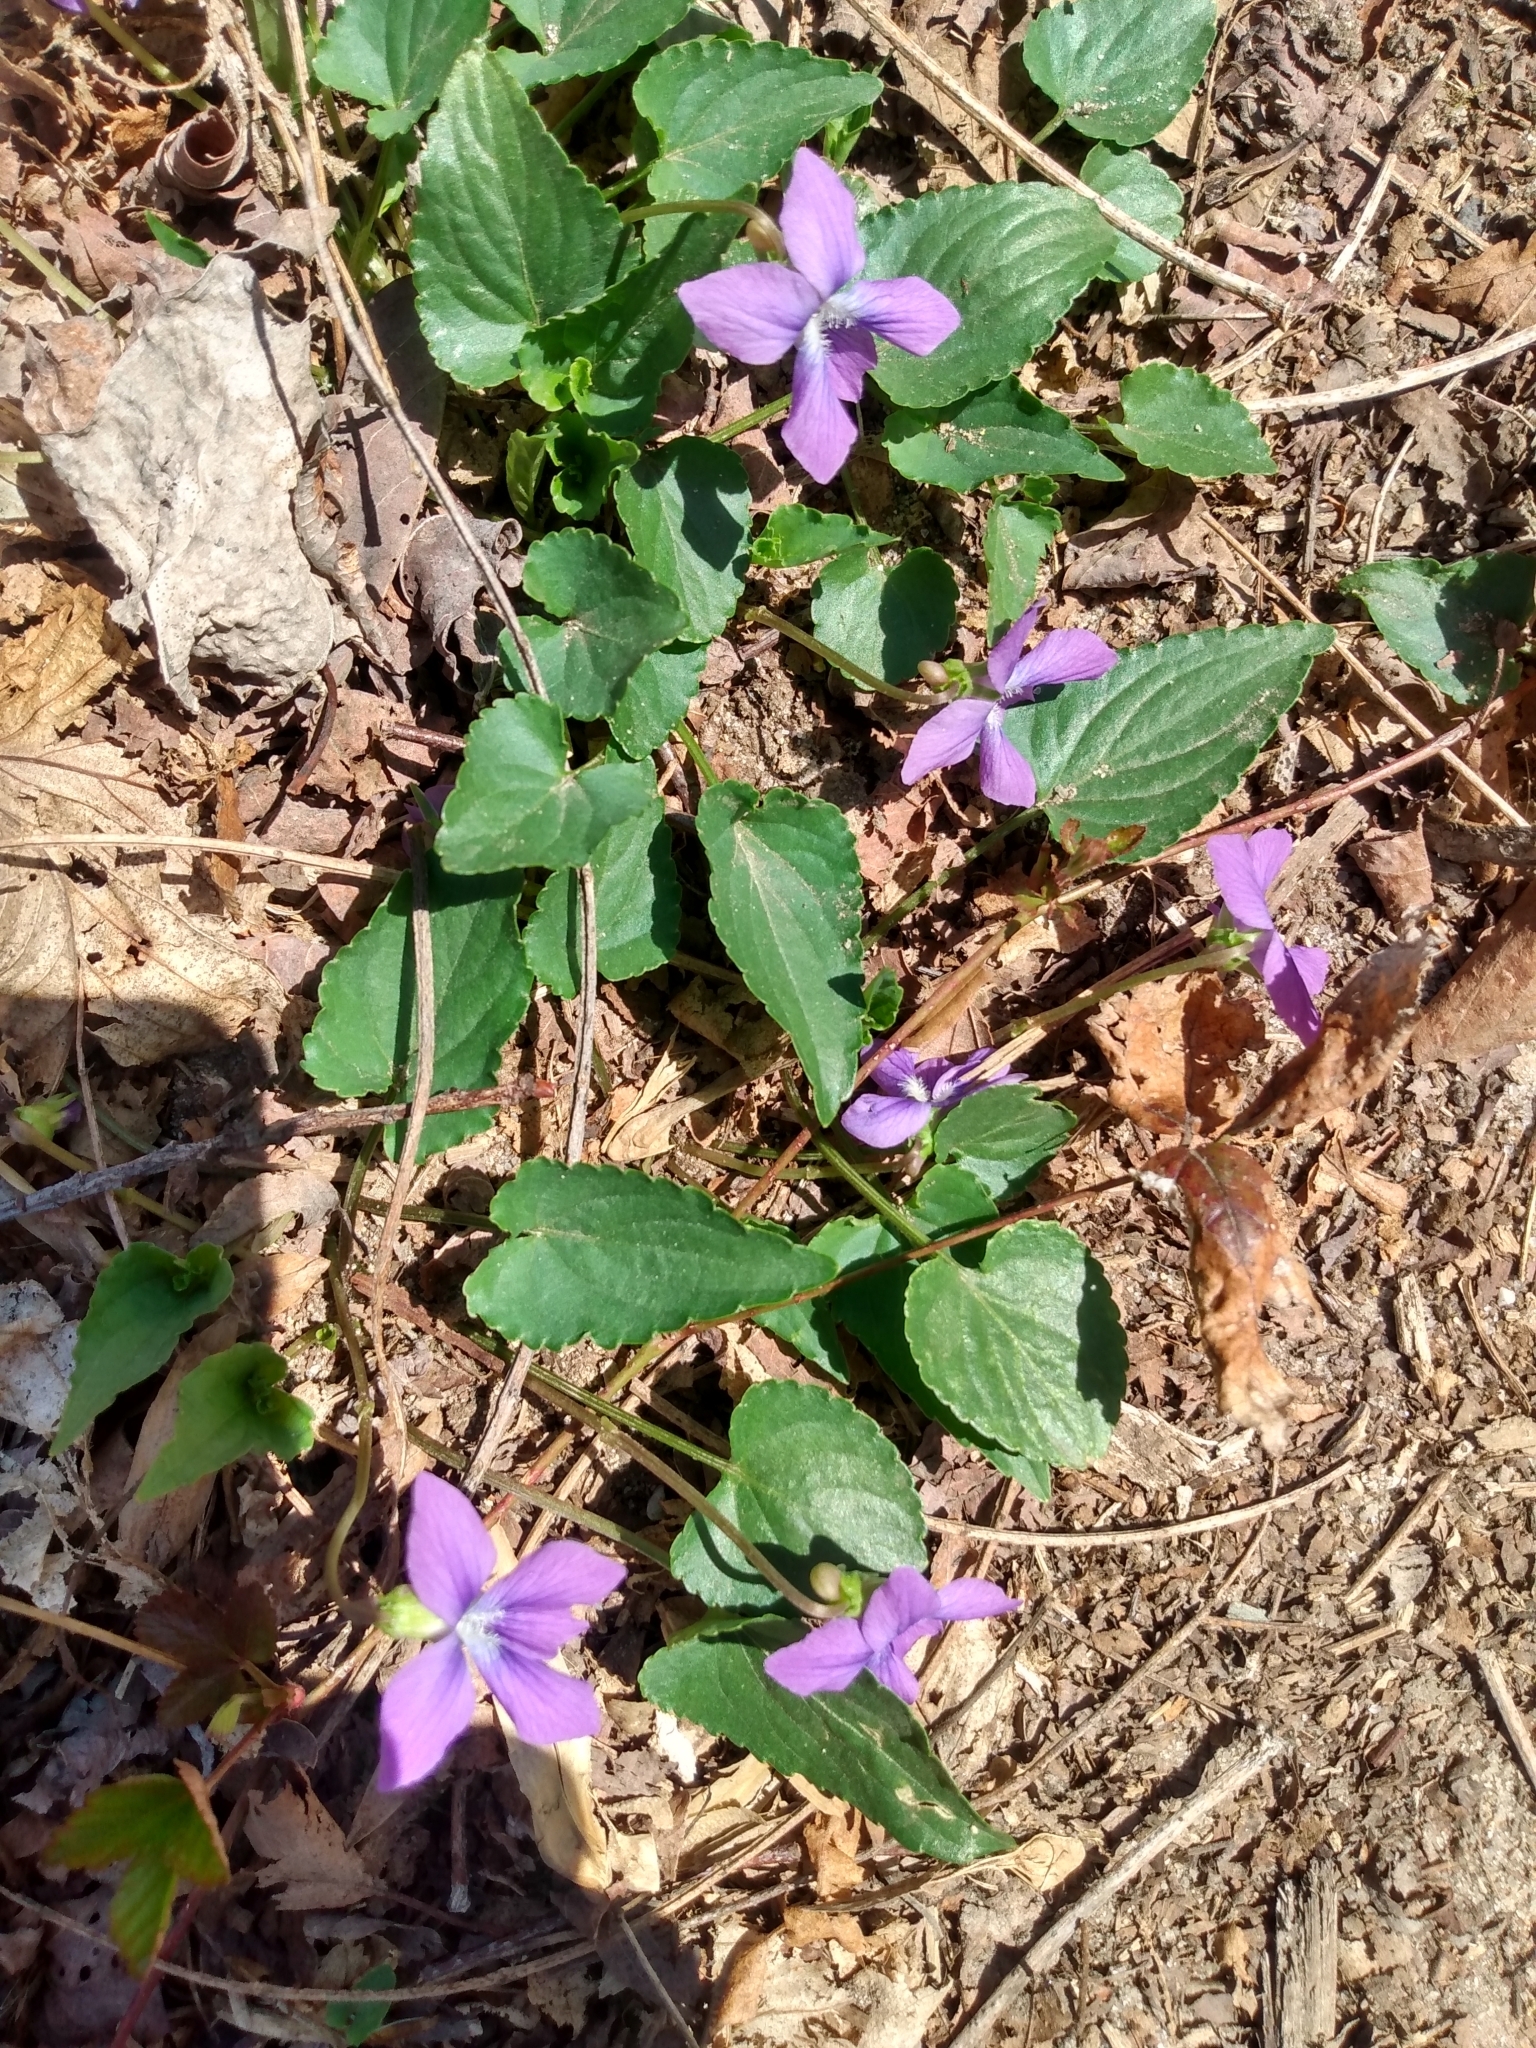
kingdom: Plantae
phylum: Tracheophyta
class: Magnoliopsida
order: Malpighiales
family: Violaceae
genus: Viola
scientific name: Viola sororia
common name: Dooryard violet
